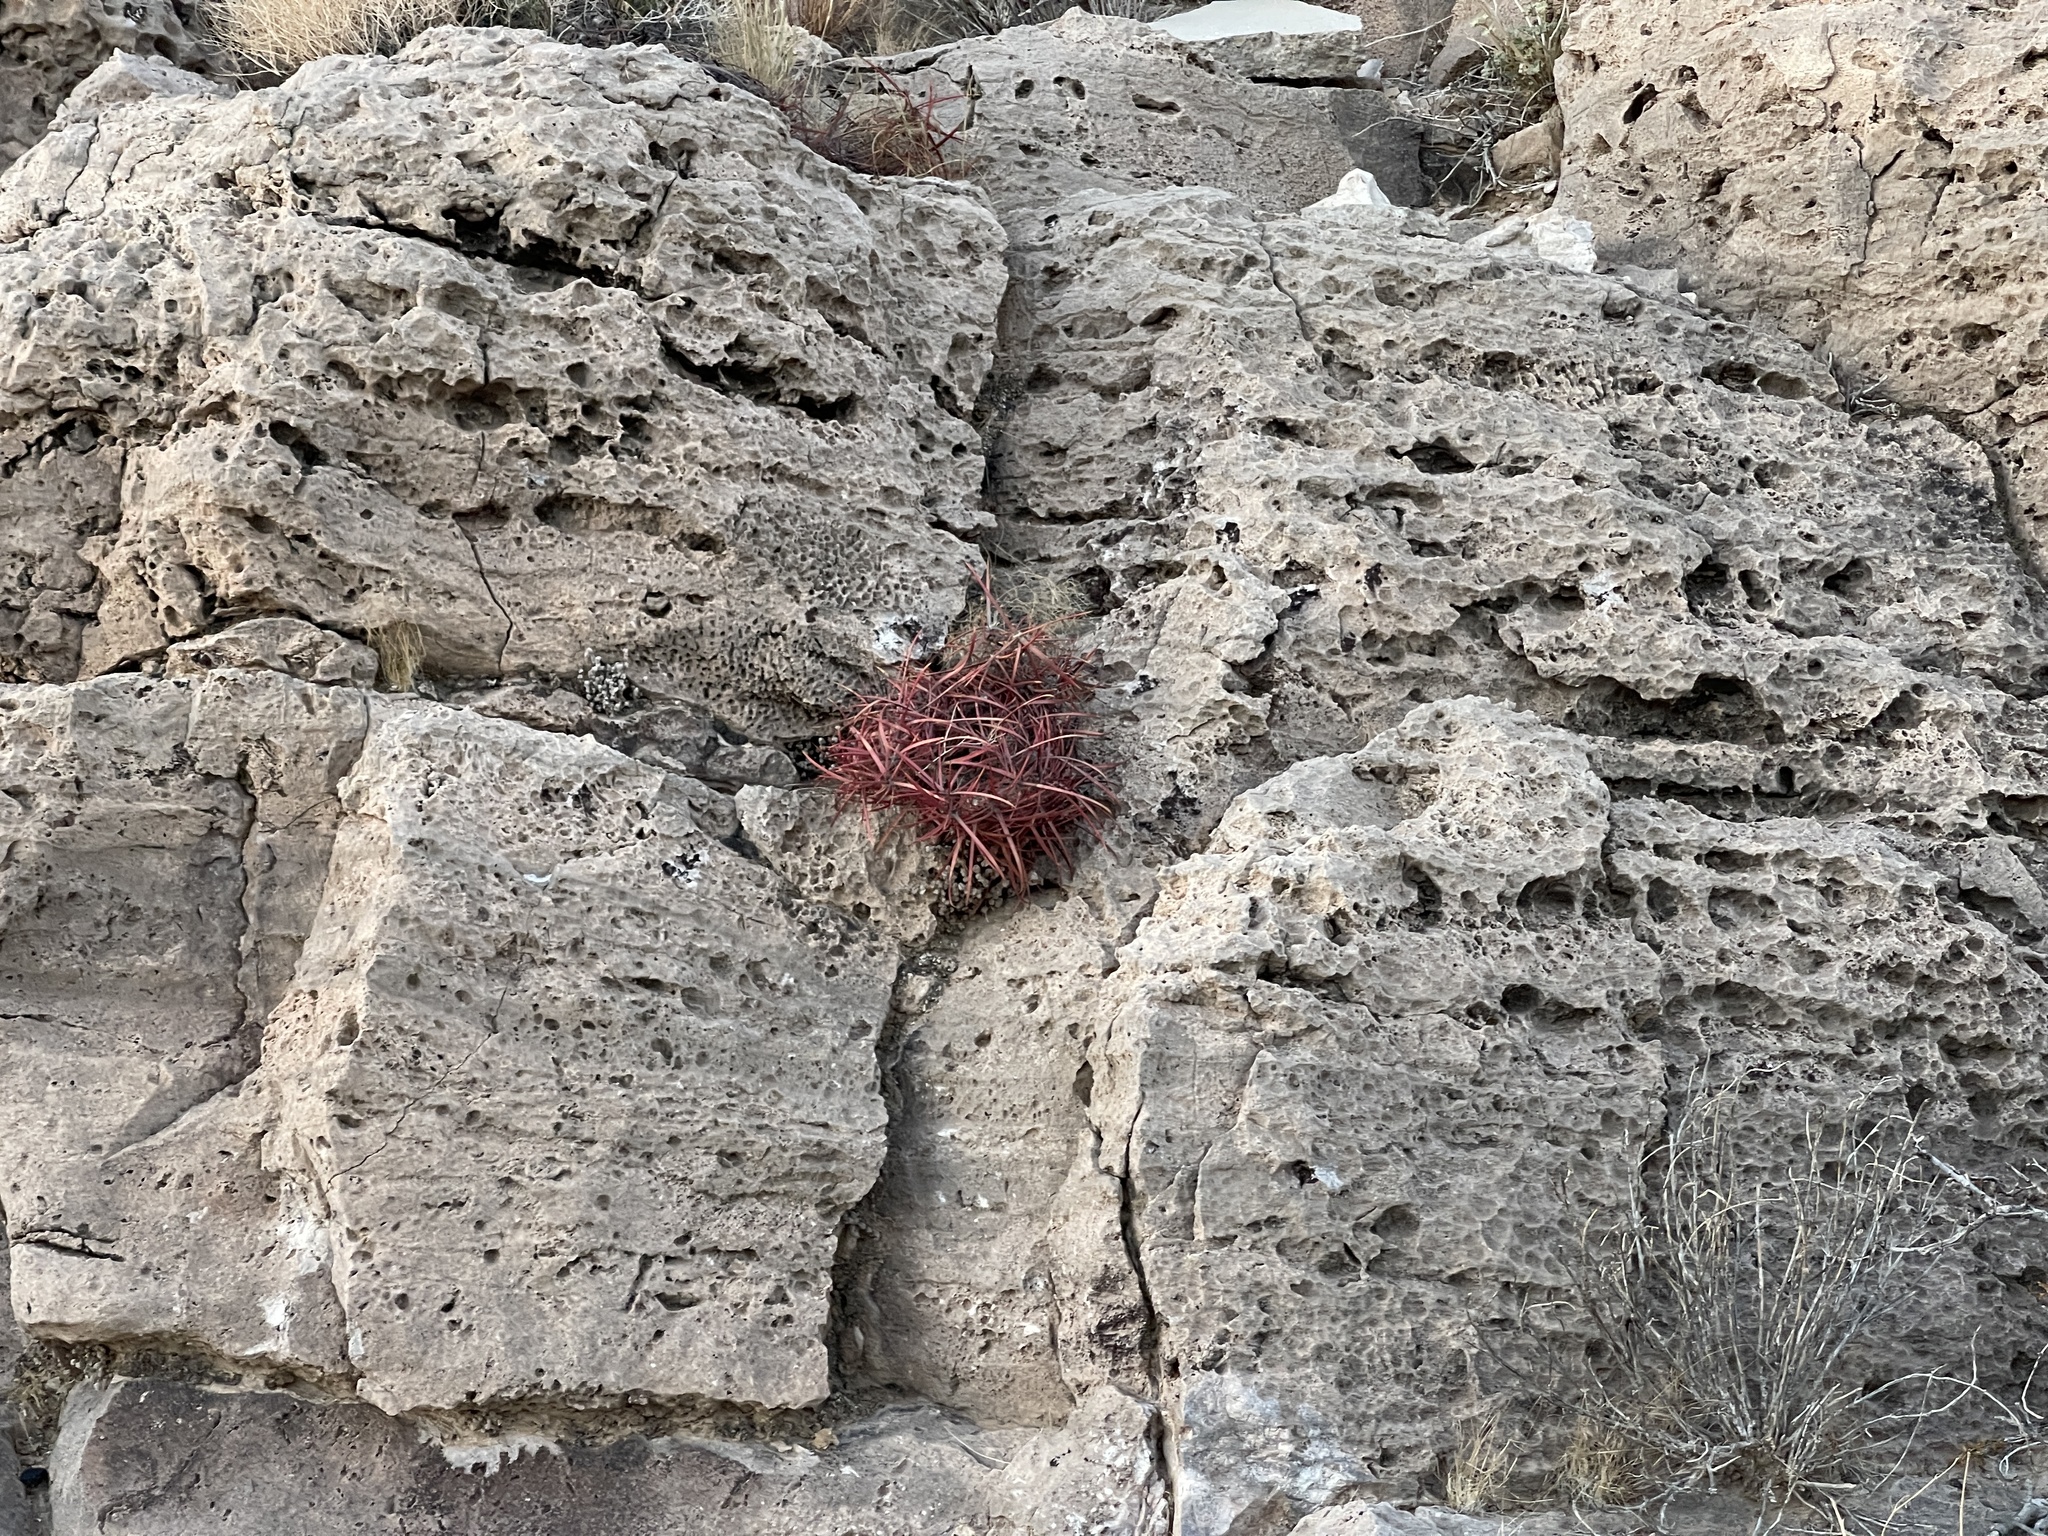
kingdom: Plantae
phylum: Tracheophyta
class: Magnoliopsida
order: Caryophyllales
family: Cactaceae
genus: Ferocactus
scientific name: Ferocactus cylindraceus
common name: California barrel cactus
